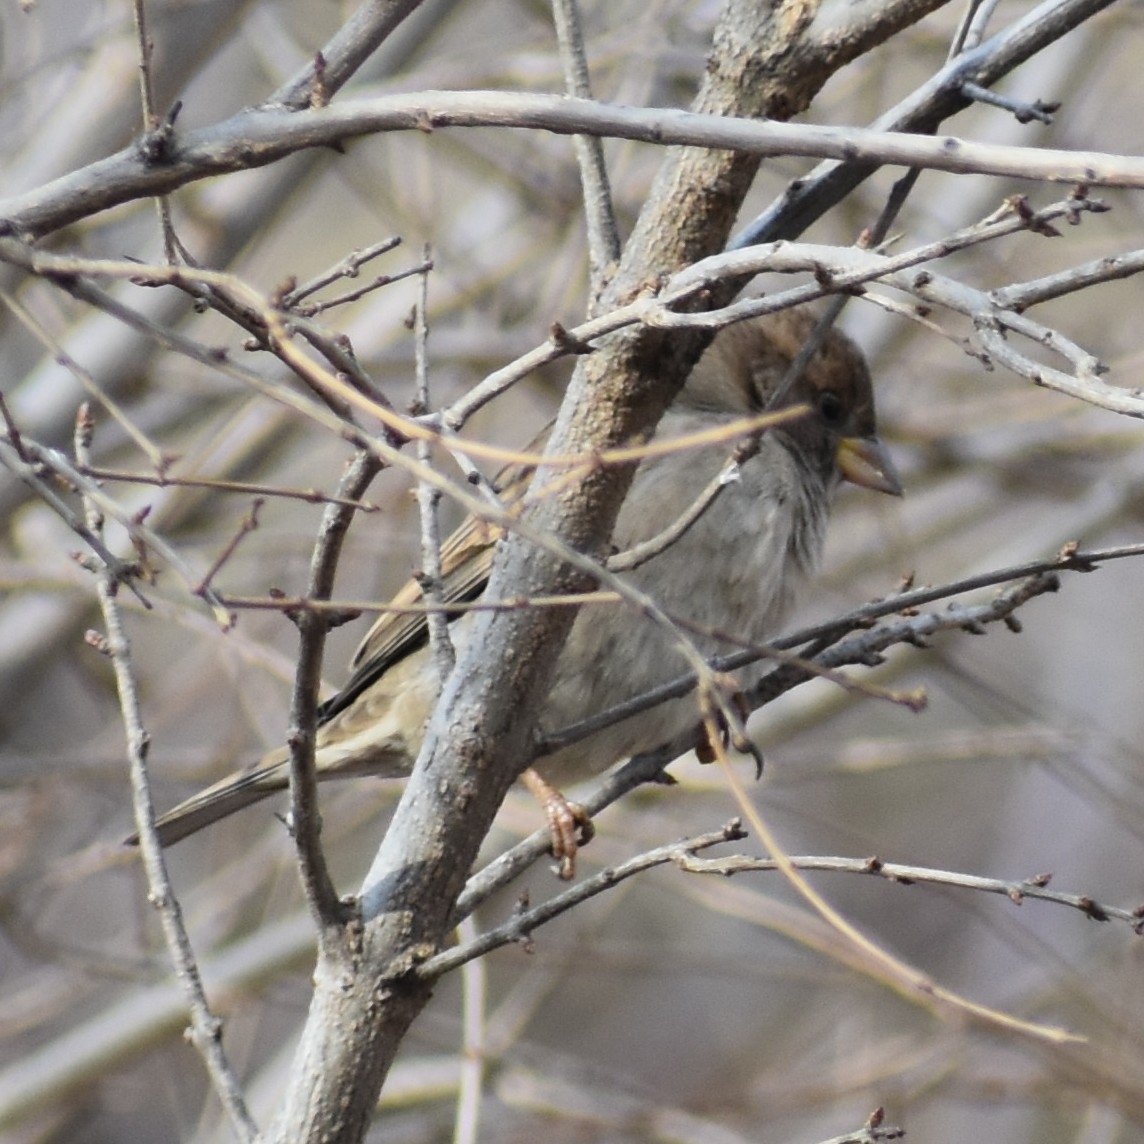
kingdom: Animalia
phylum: Chordata
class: Aves
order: Passeriformes
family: Passeridae
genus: Passer
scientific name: Passer domesticus
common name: House sparrow
